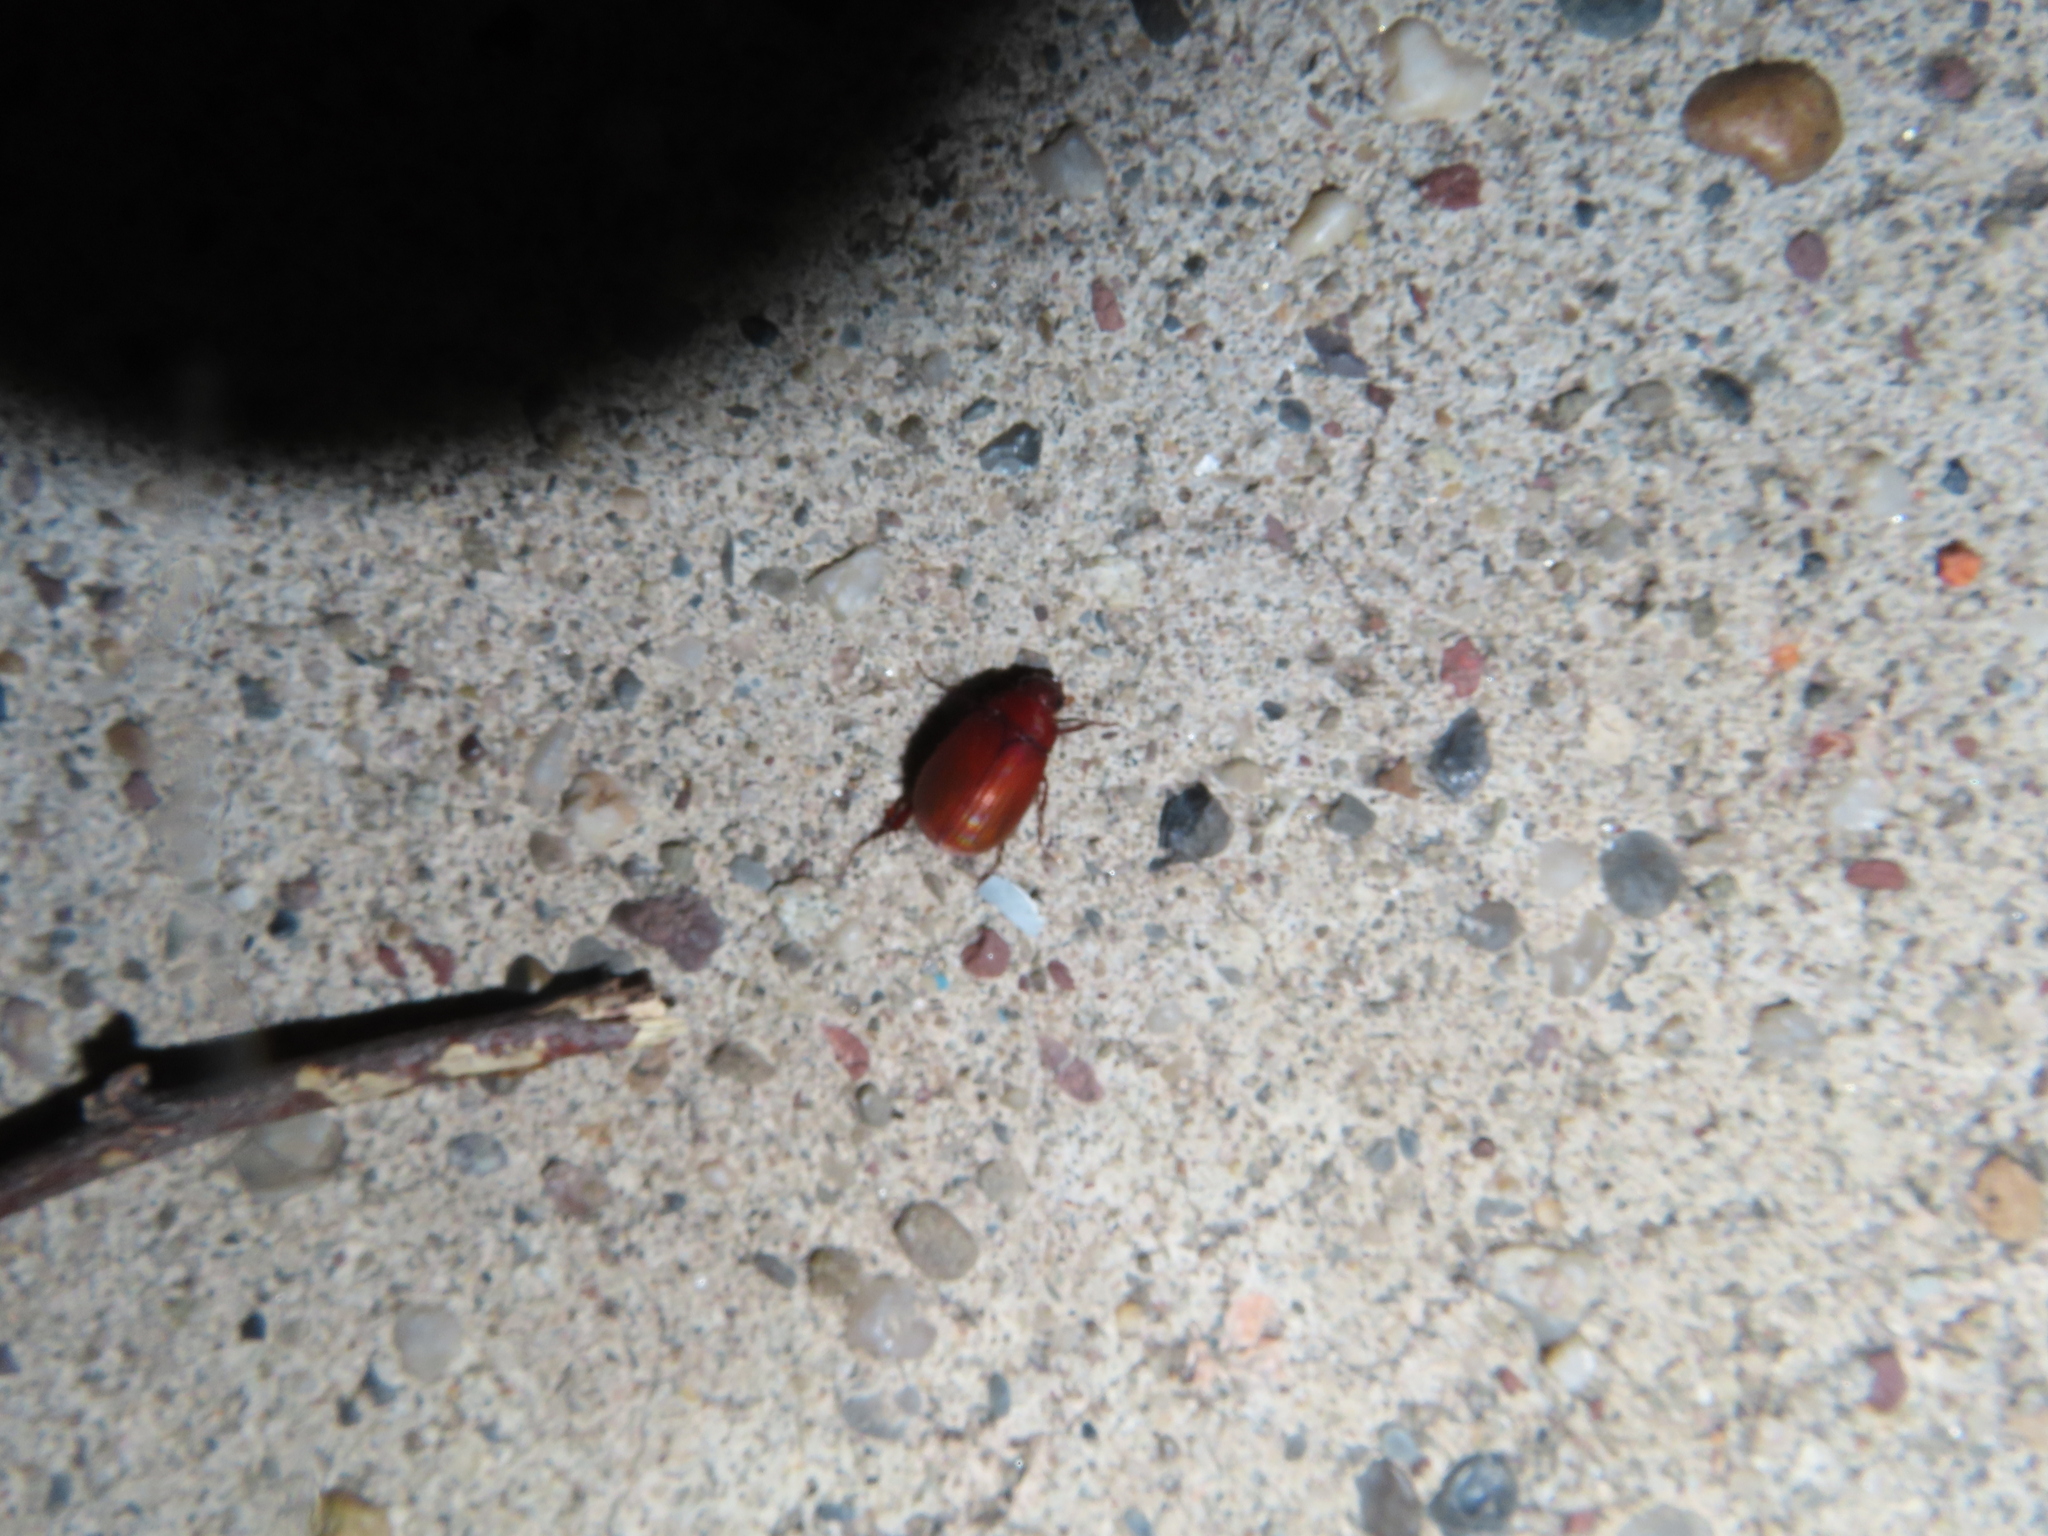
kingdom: Animalia
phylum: Arthropoda
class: Insecta
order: Coleoptera
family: Scarabaeidae
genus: Maladera
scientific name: Maladera formosae
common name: Asiatic garden beetle
